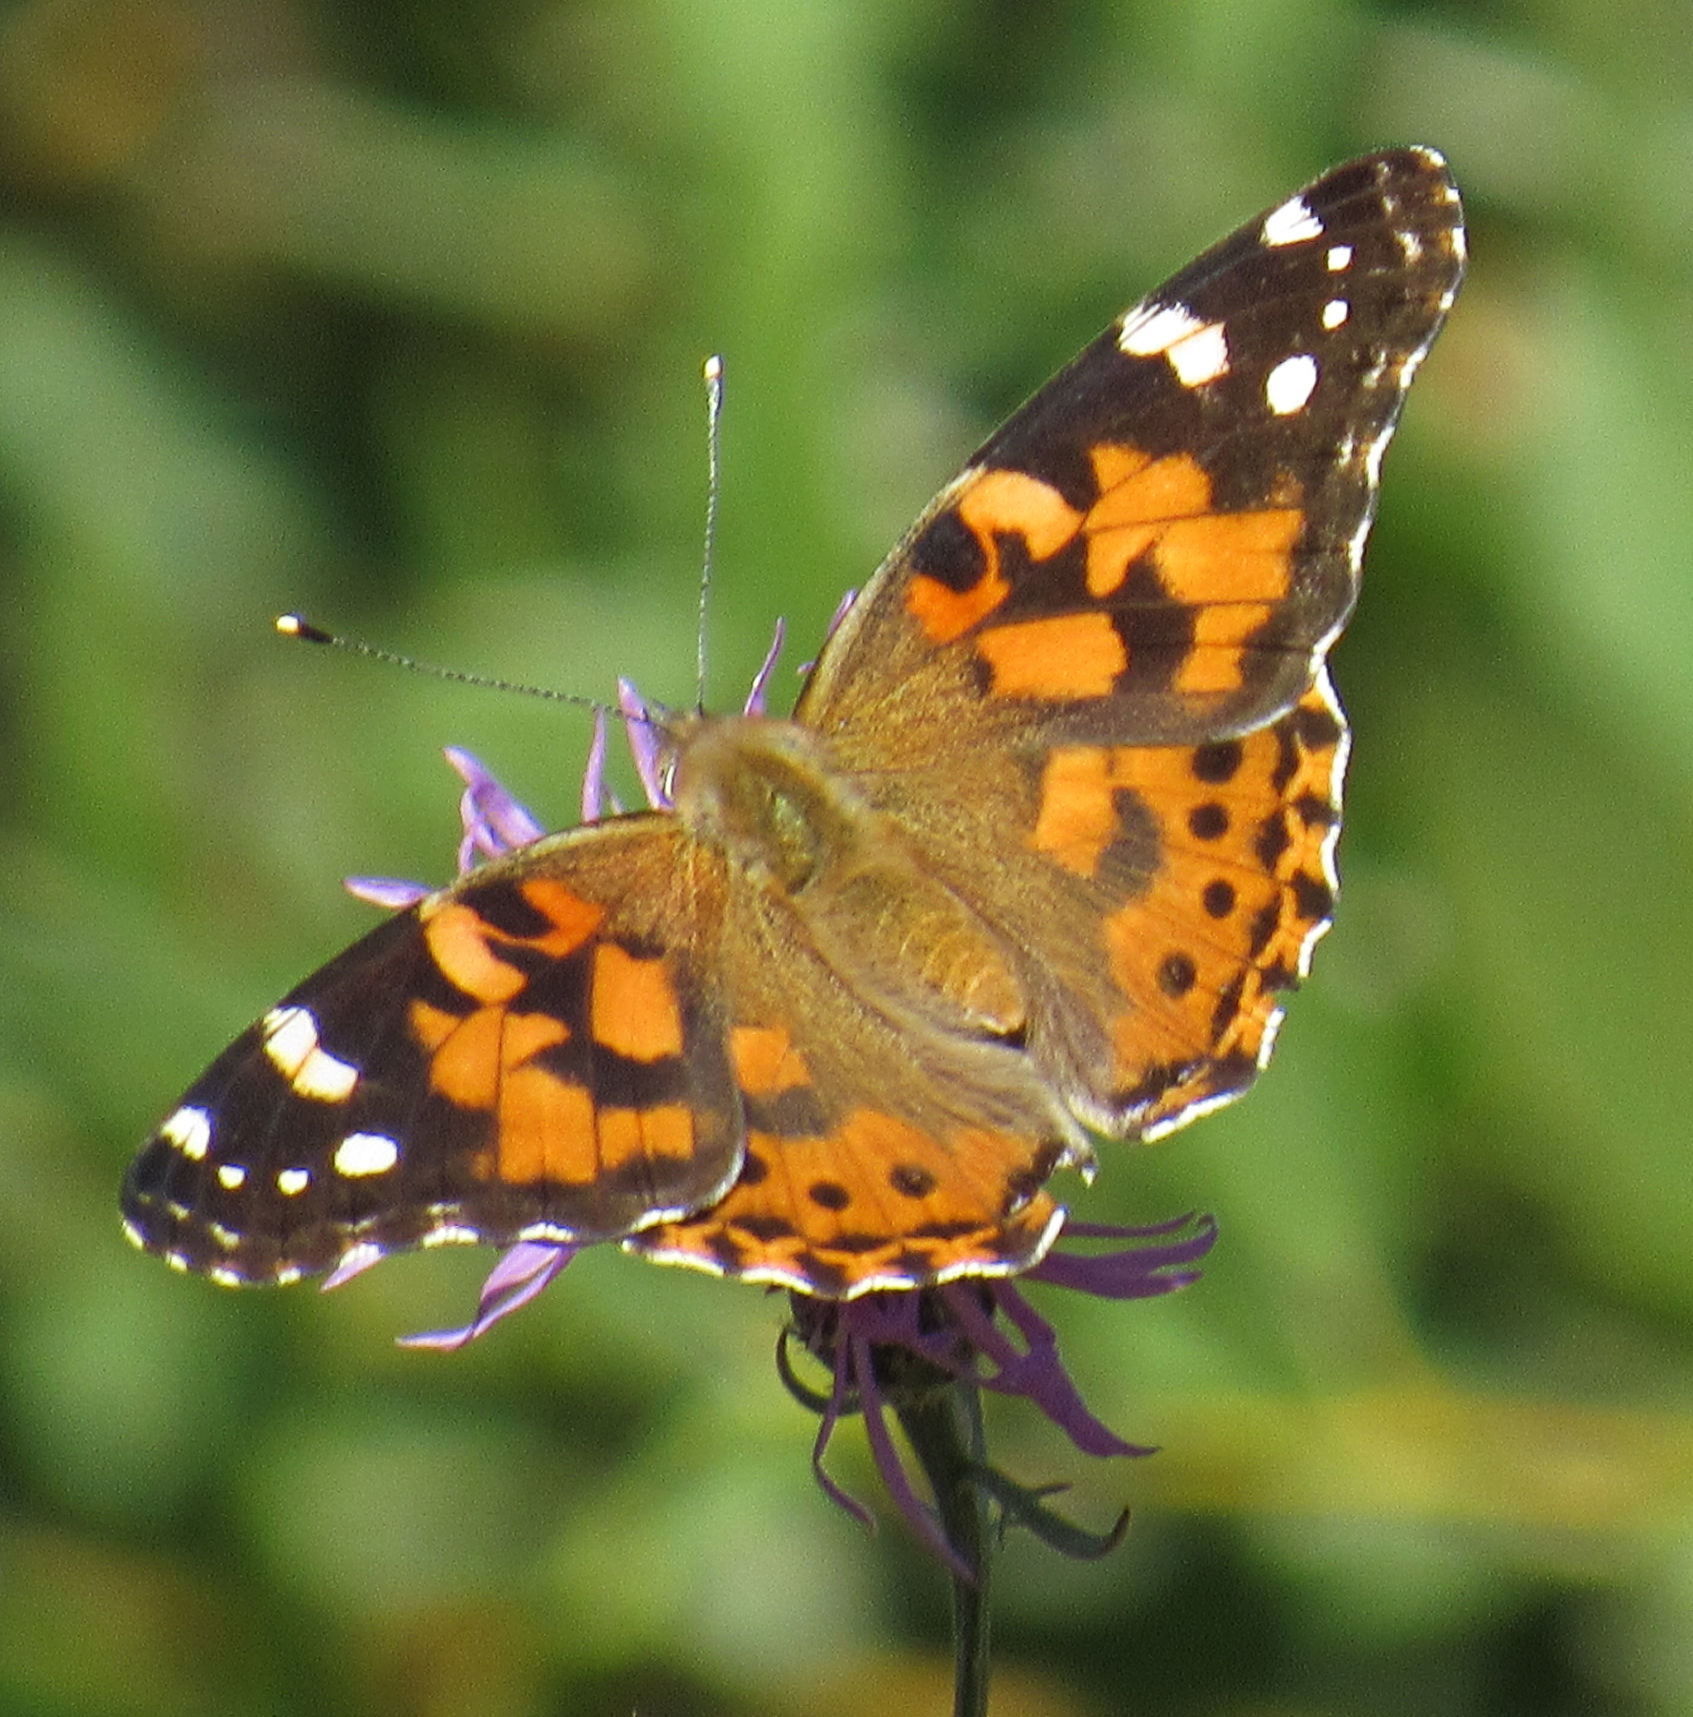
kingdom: Animalia
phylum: Arthropoda
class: Insecta
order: Lepidoptera
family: Nymphalidae
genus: Vanessa
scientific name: Vanessa cardui
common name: Painted lady
